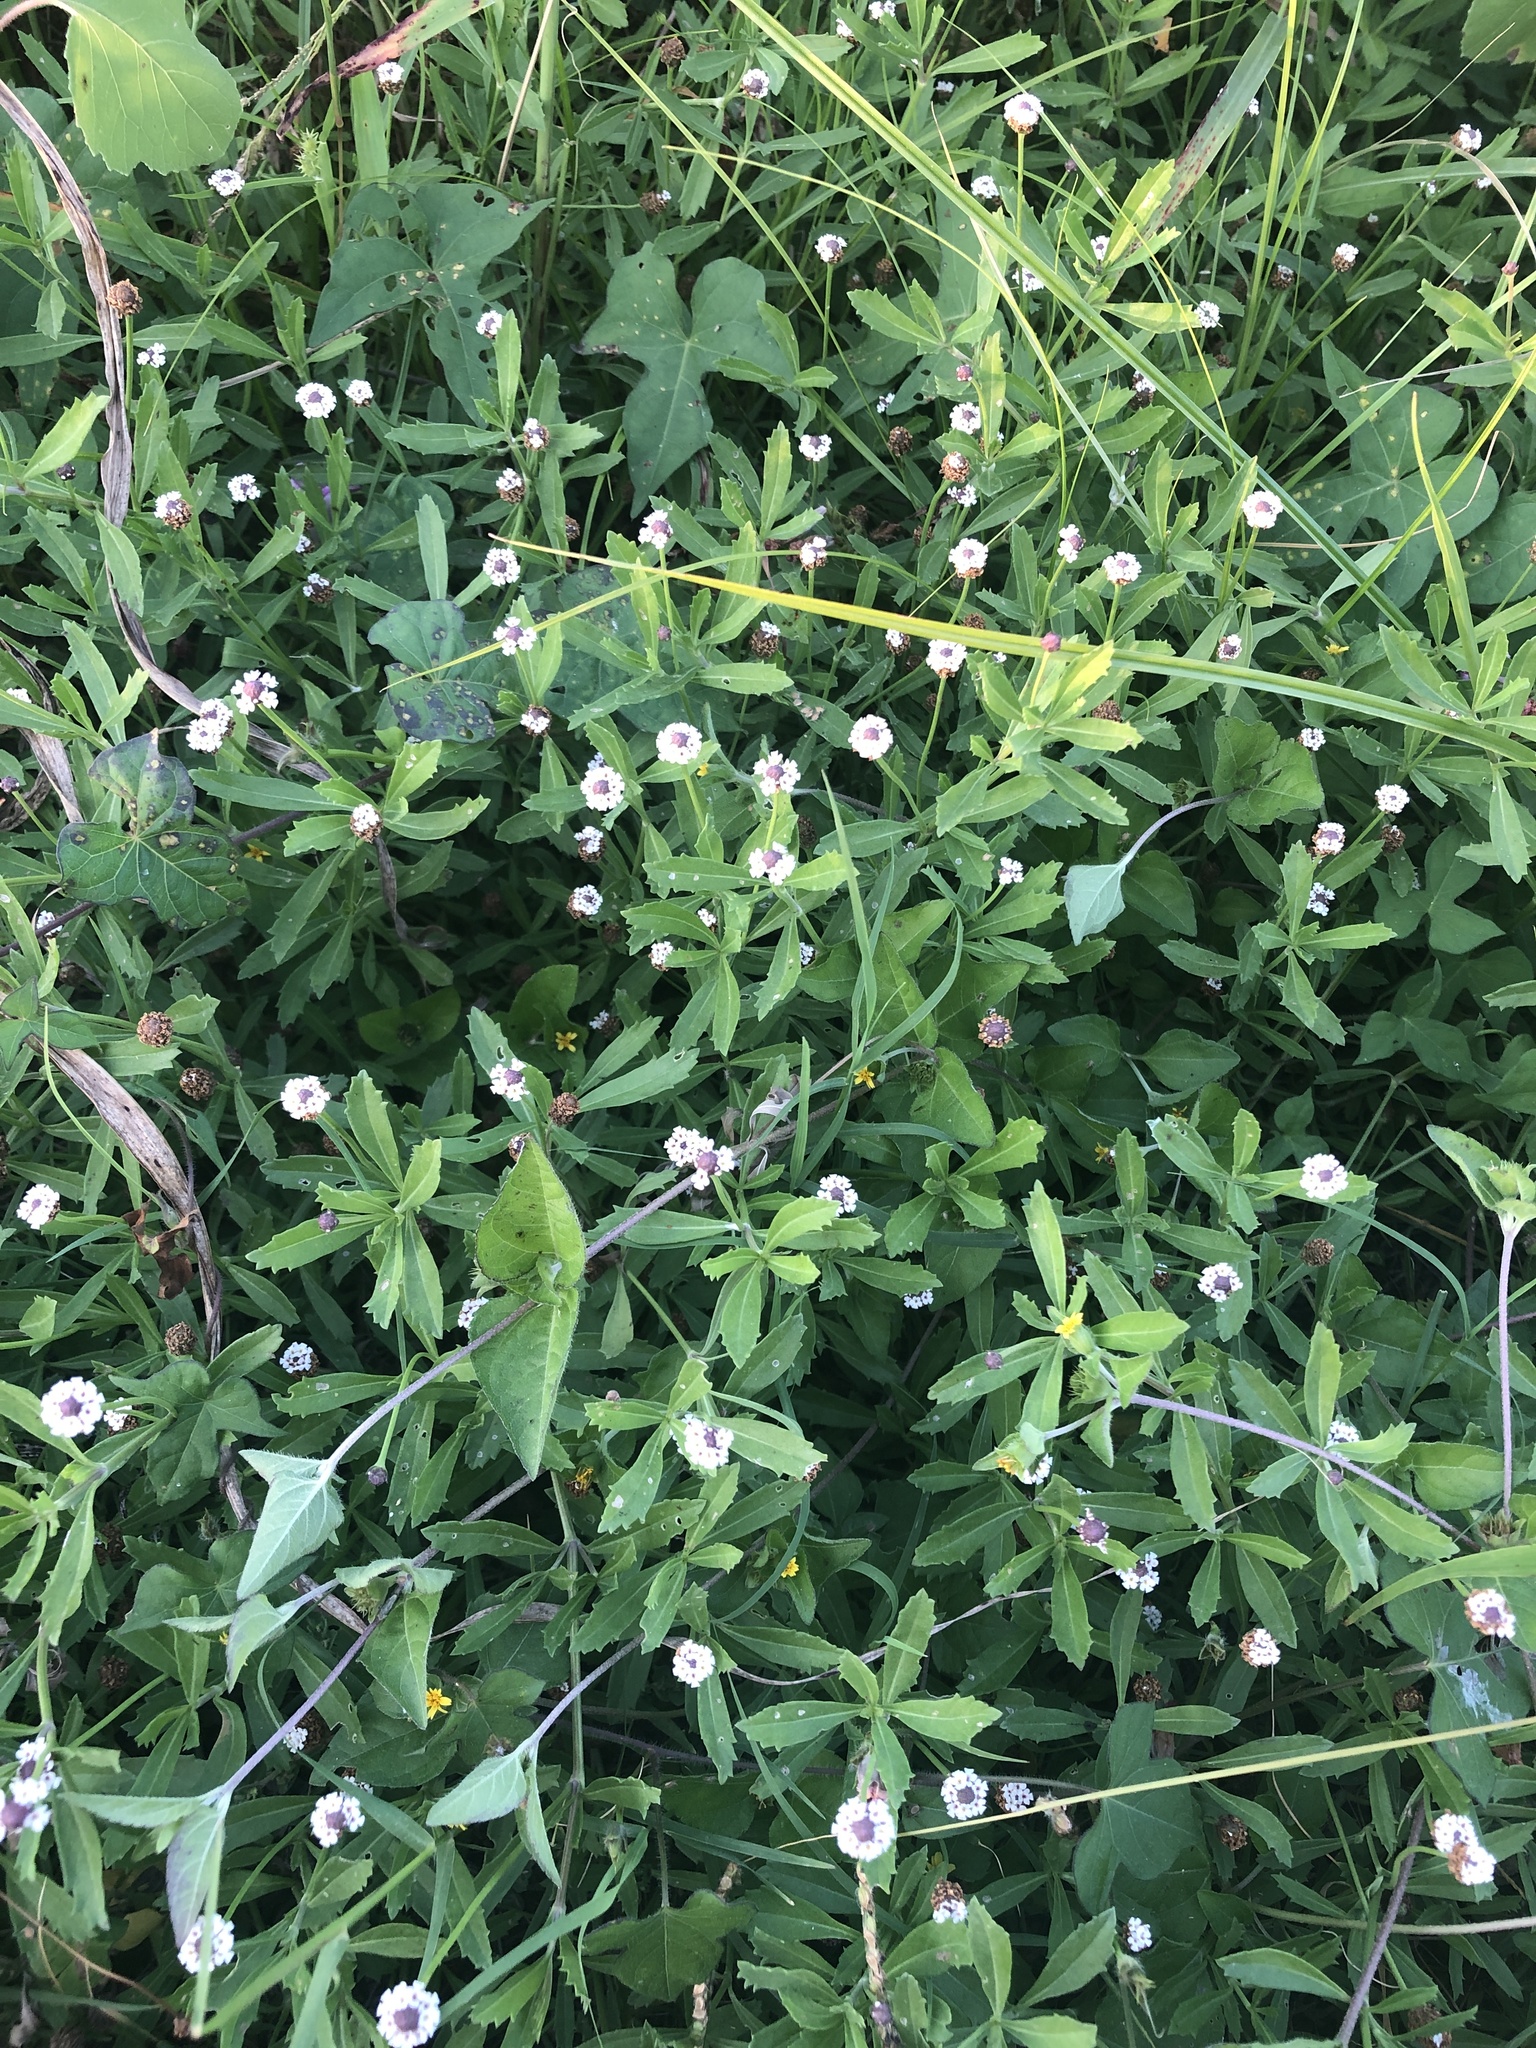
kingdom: Plantae
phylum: Tracheophyta
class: Magnoliopsida
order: Lamiales
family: Verbenaceae
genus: Phyla
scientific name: Phyla nodiflora
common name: Frogfruit
